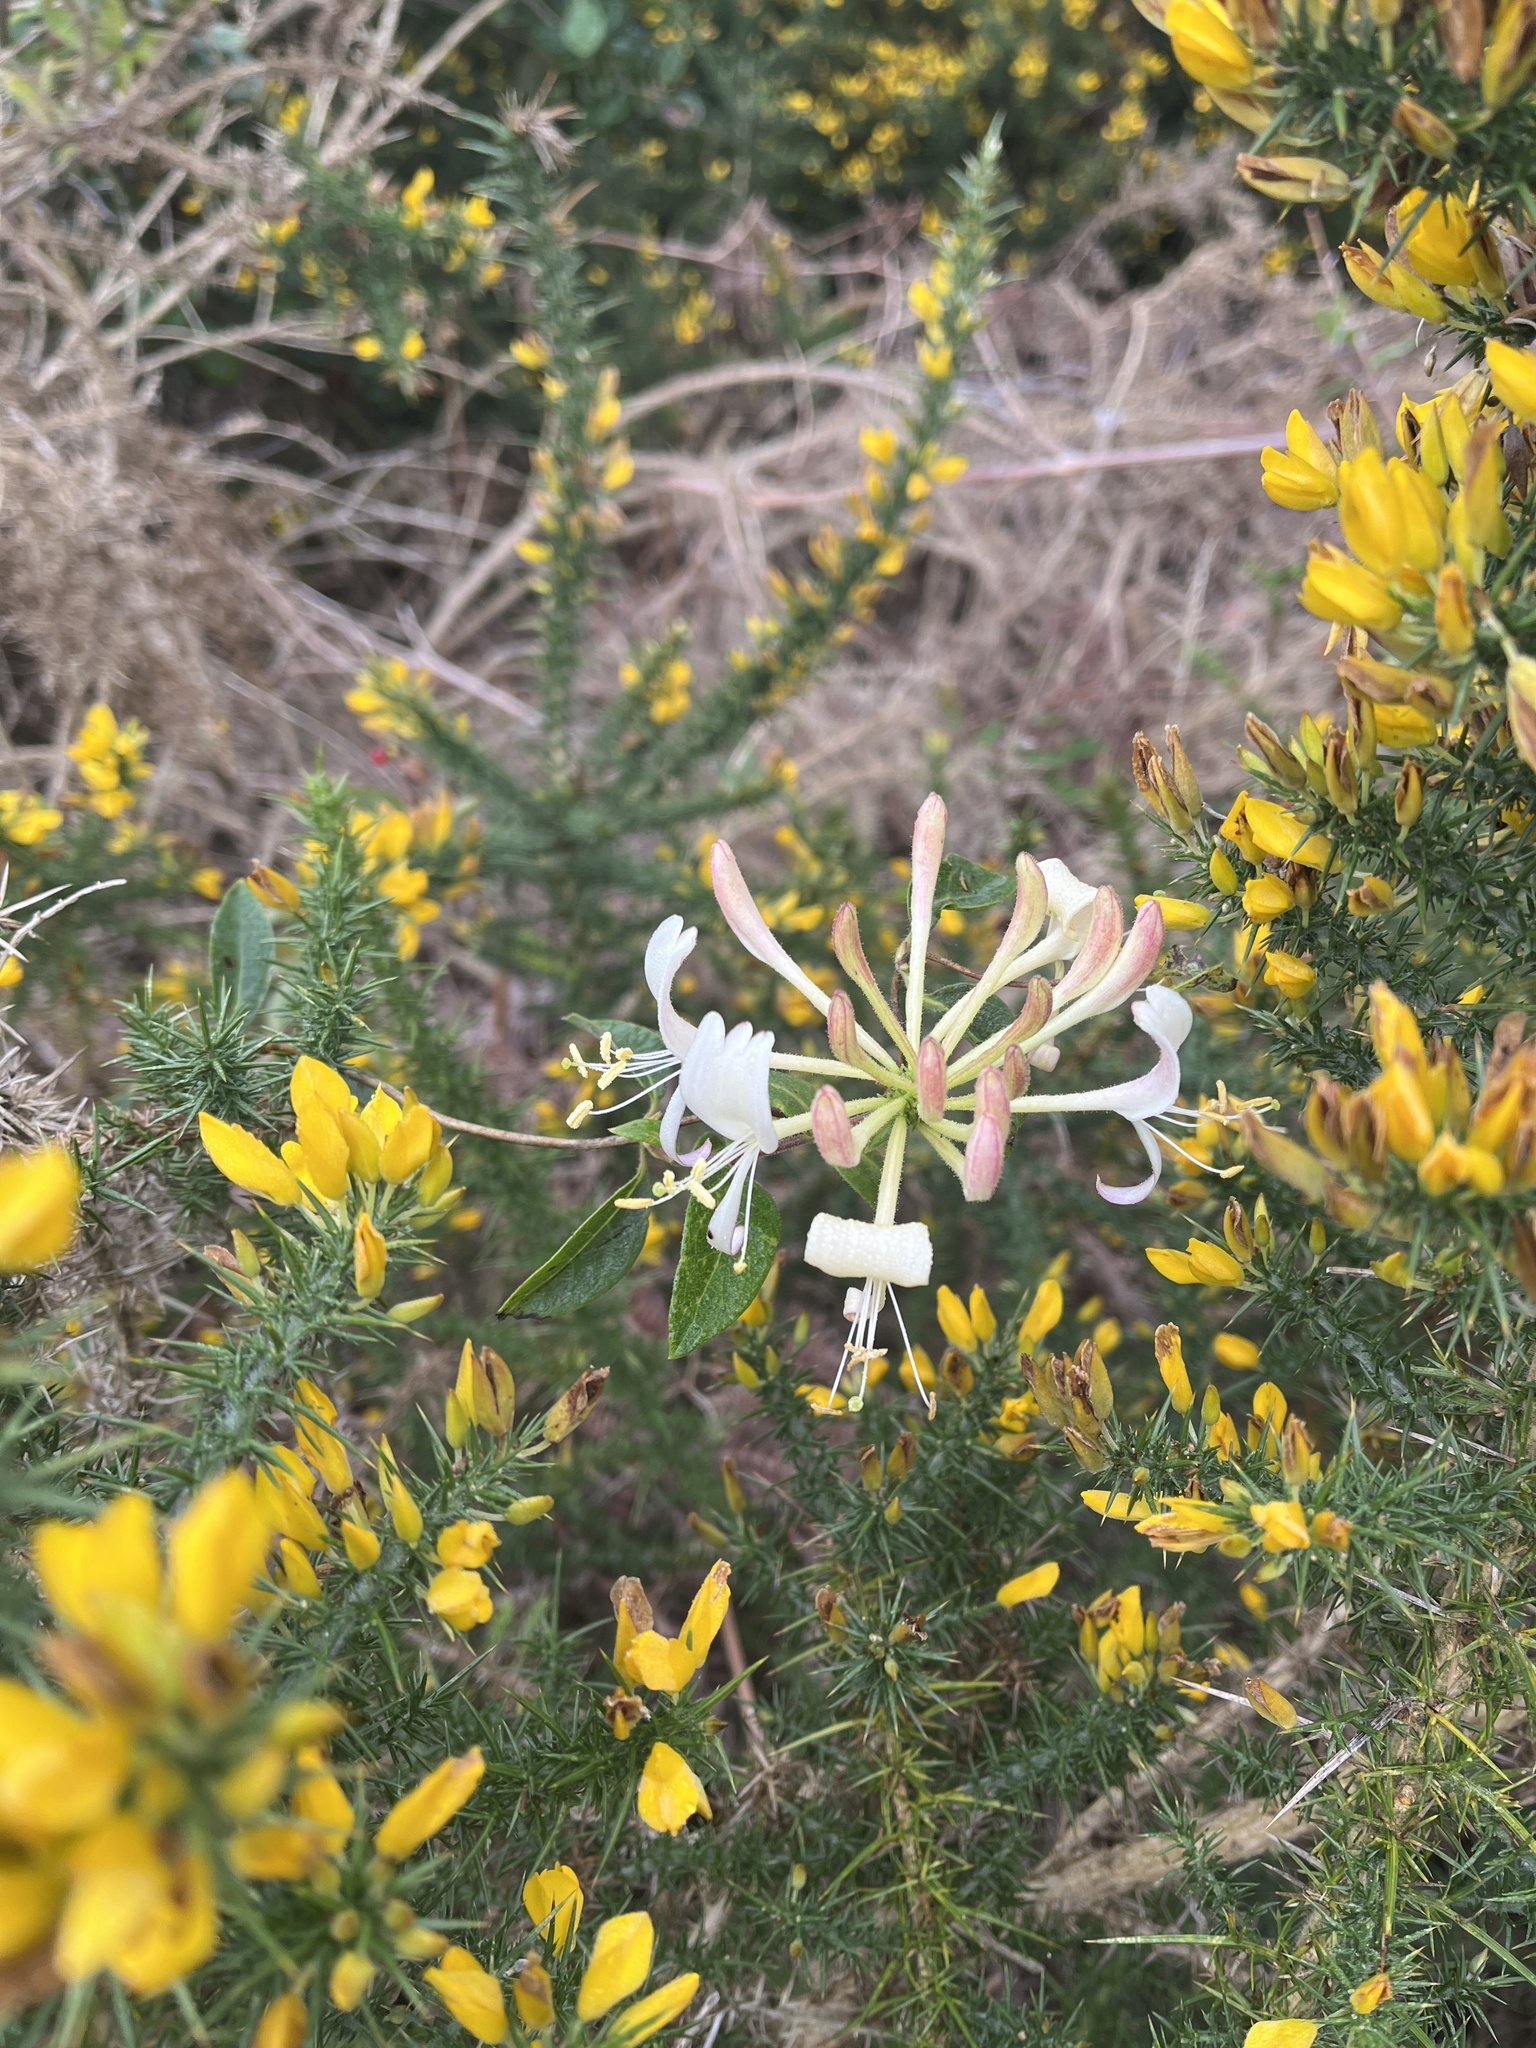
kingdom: Plantae
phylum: Tracheophyta
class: Magnoliopsida
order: Dipsacales
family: Caprifoliaceae
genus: Lonicera
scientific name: Lonicera periclymenum
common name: European honeysuckle
